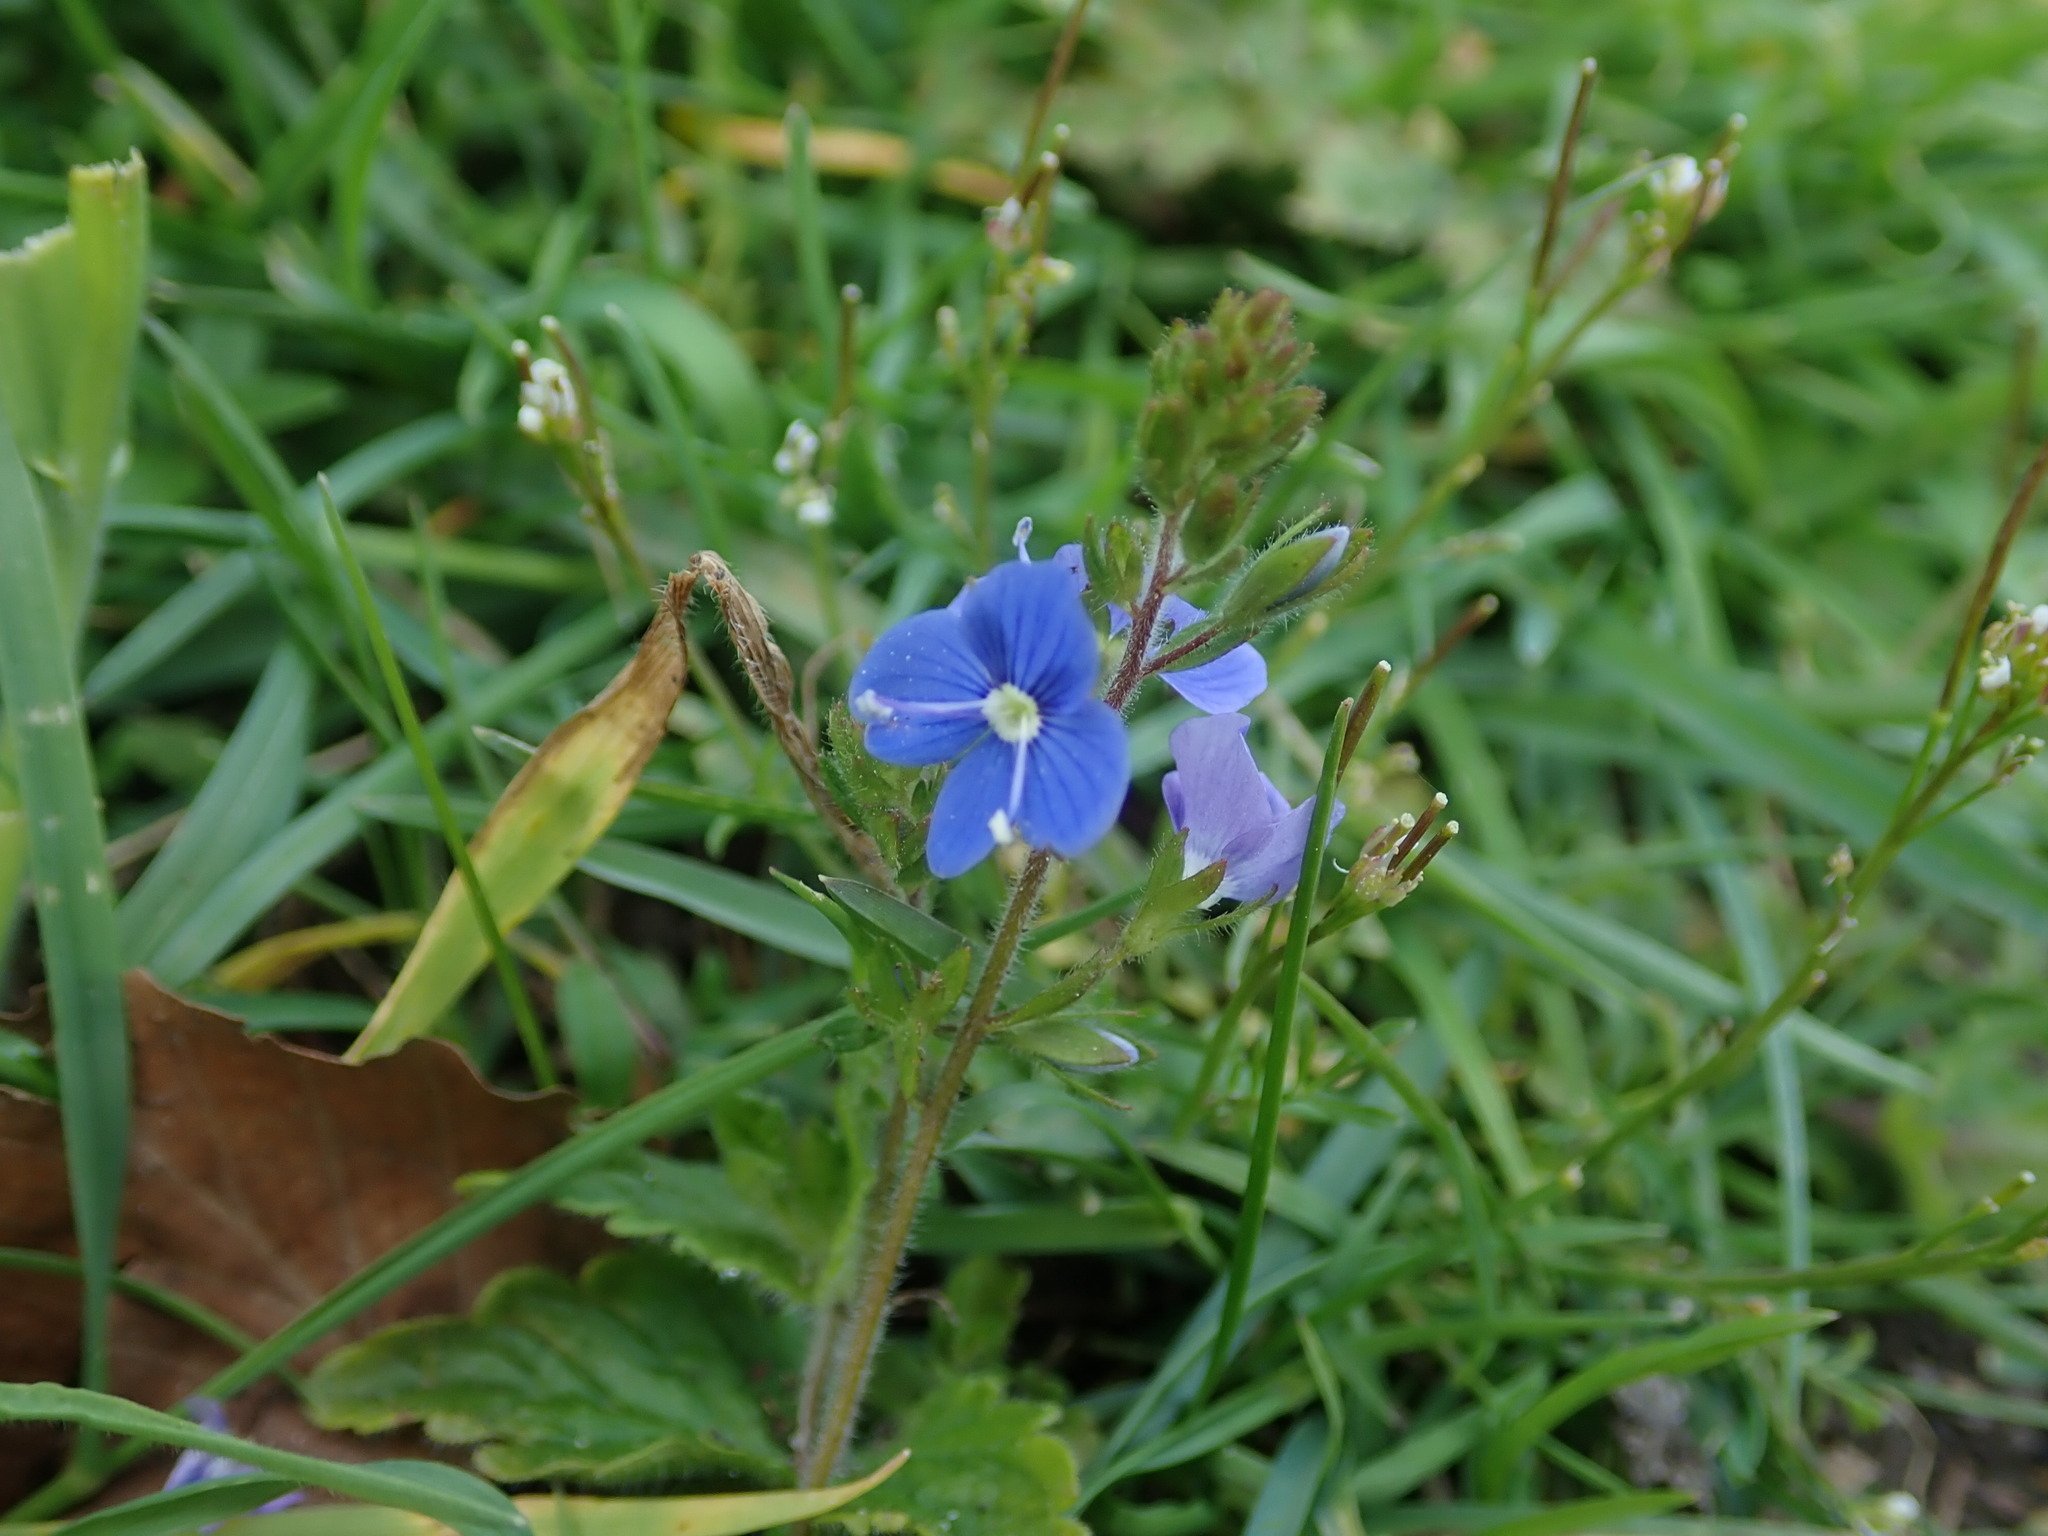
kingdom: Plantae
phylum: Tracheophyta
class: Magnoliopsida
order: Lamiales
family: Plantaginaceae
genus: Veronica
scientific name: Veronica chamaedrys
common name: Germander speedwell
